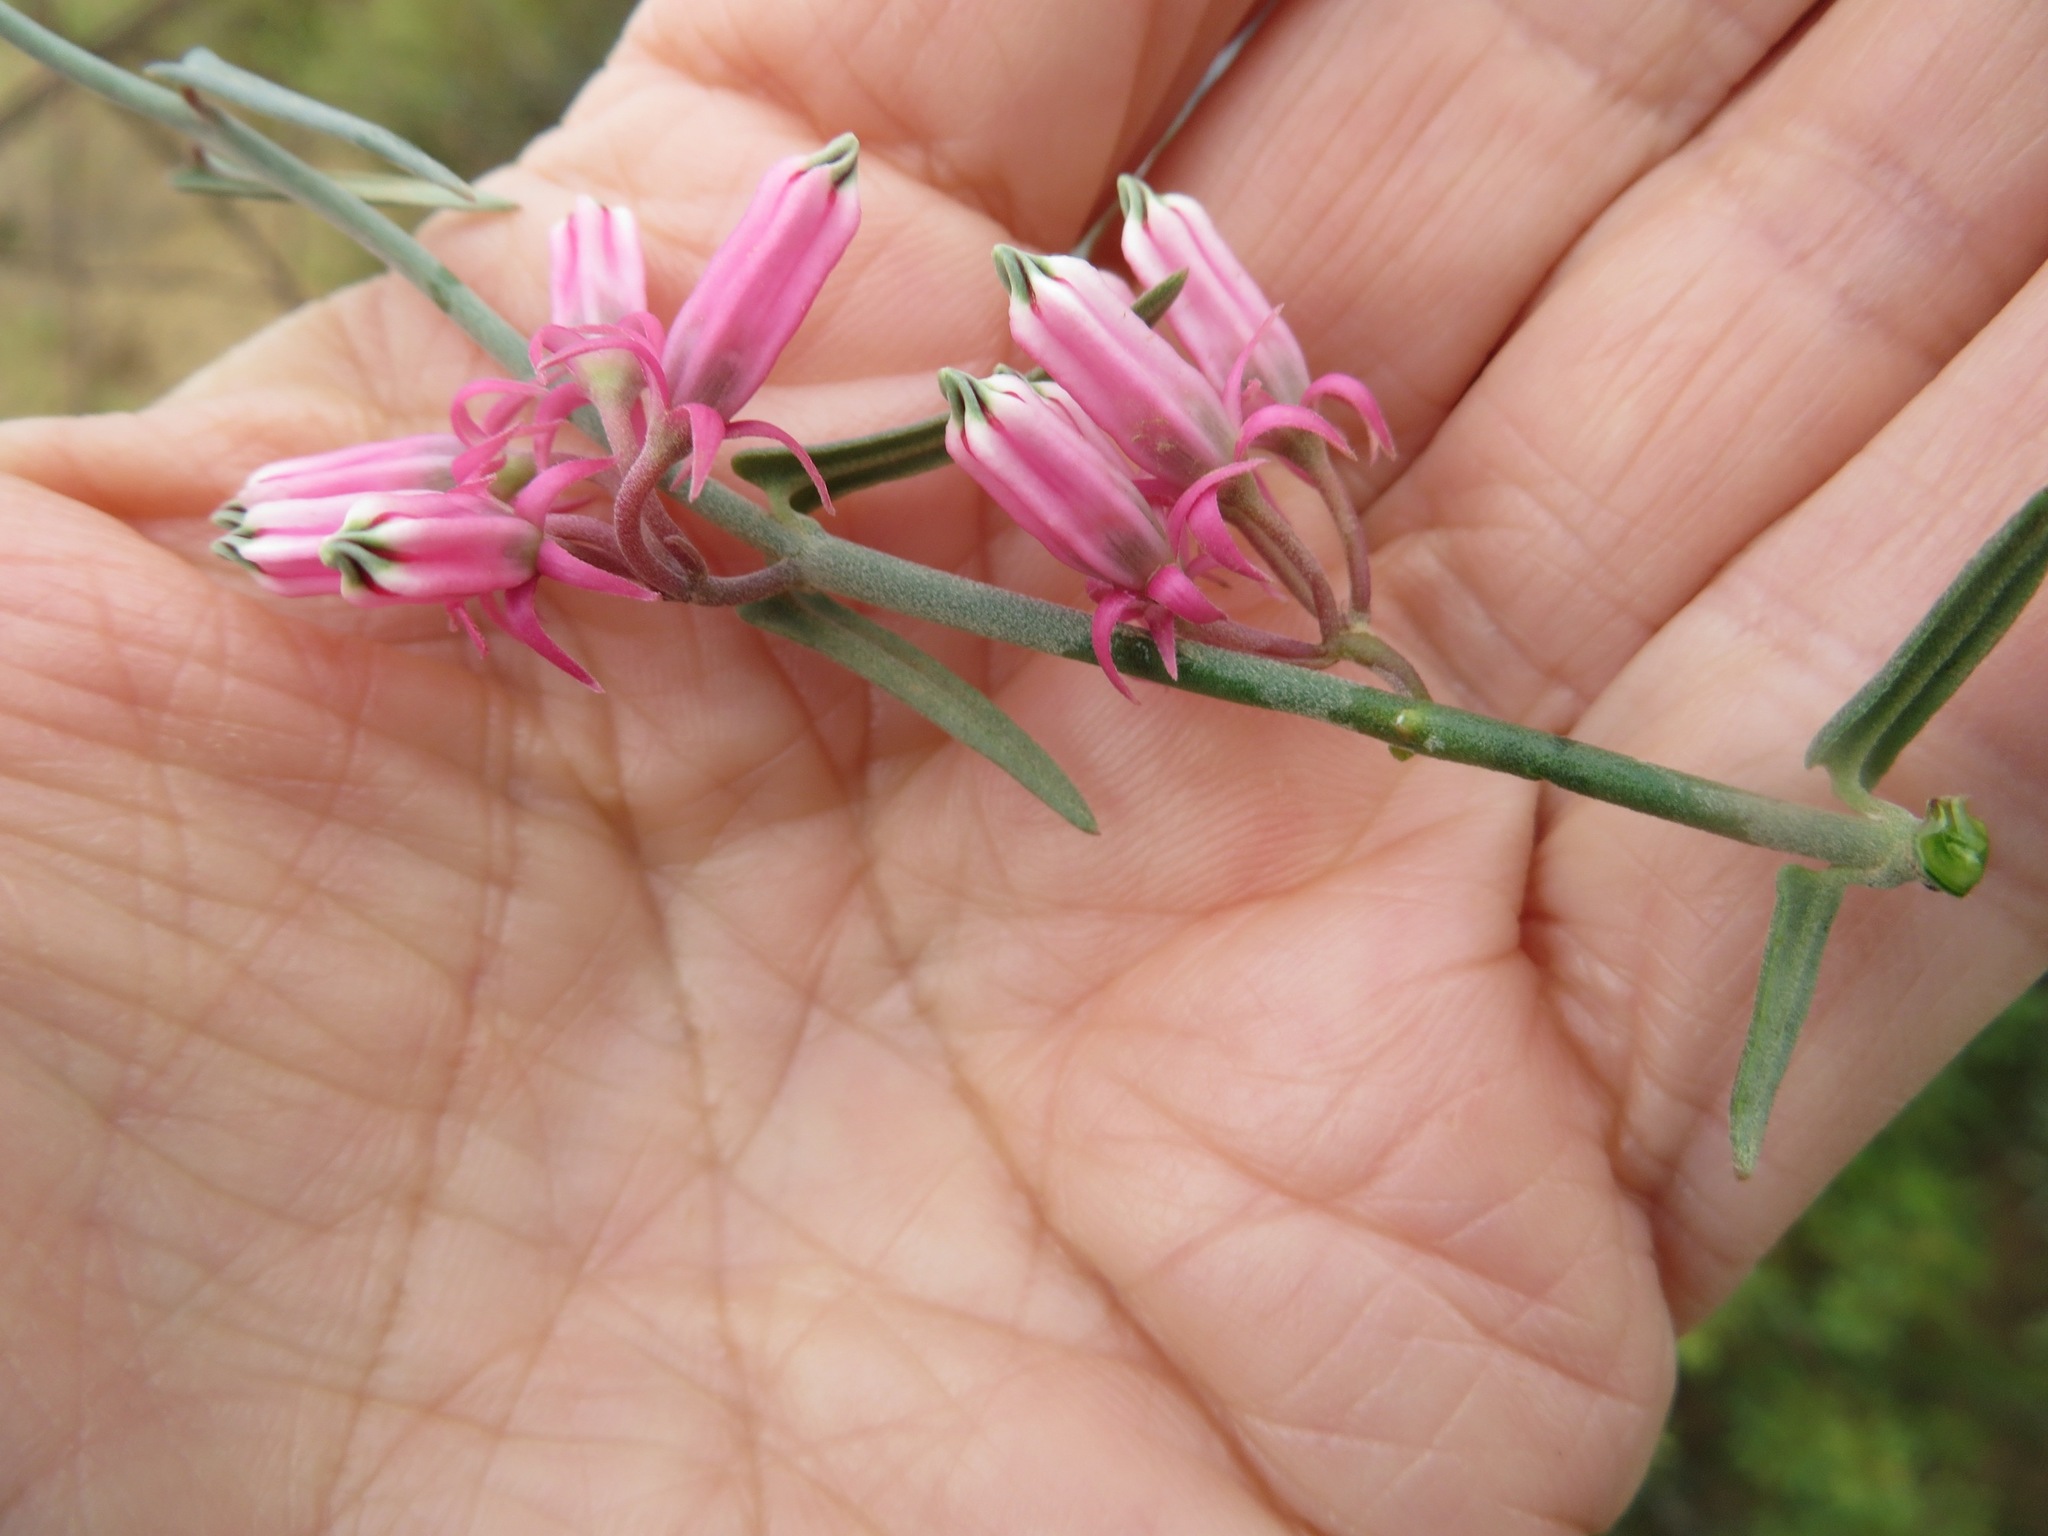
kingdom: Plantae
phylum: Tracheophyta
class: Magnoliopsida
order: Gentianales
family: Apocynaceae
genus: Microloma
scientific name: Microloma sagittatum
